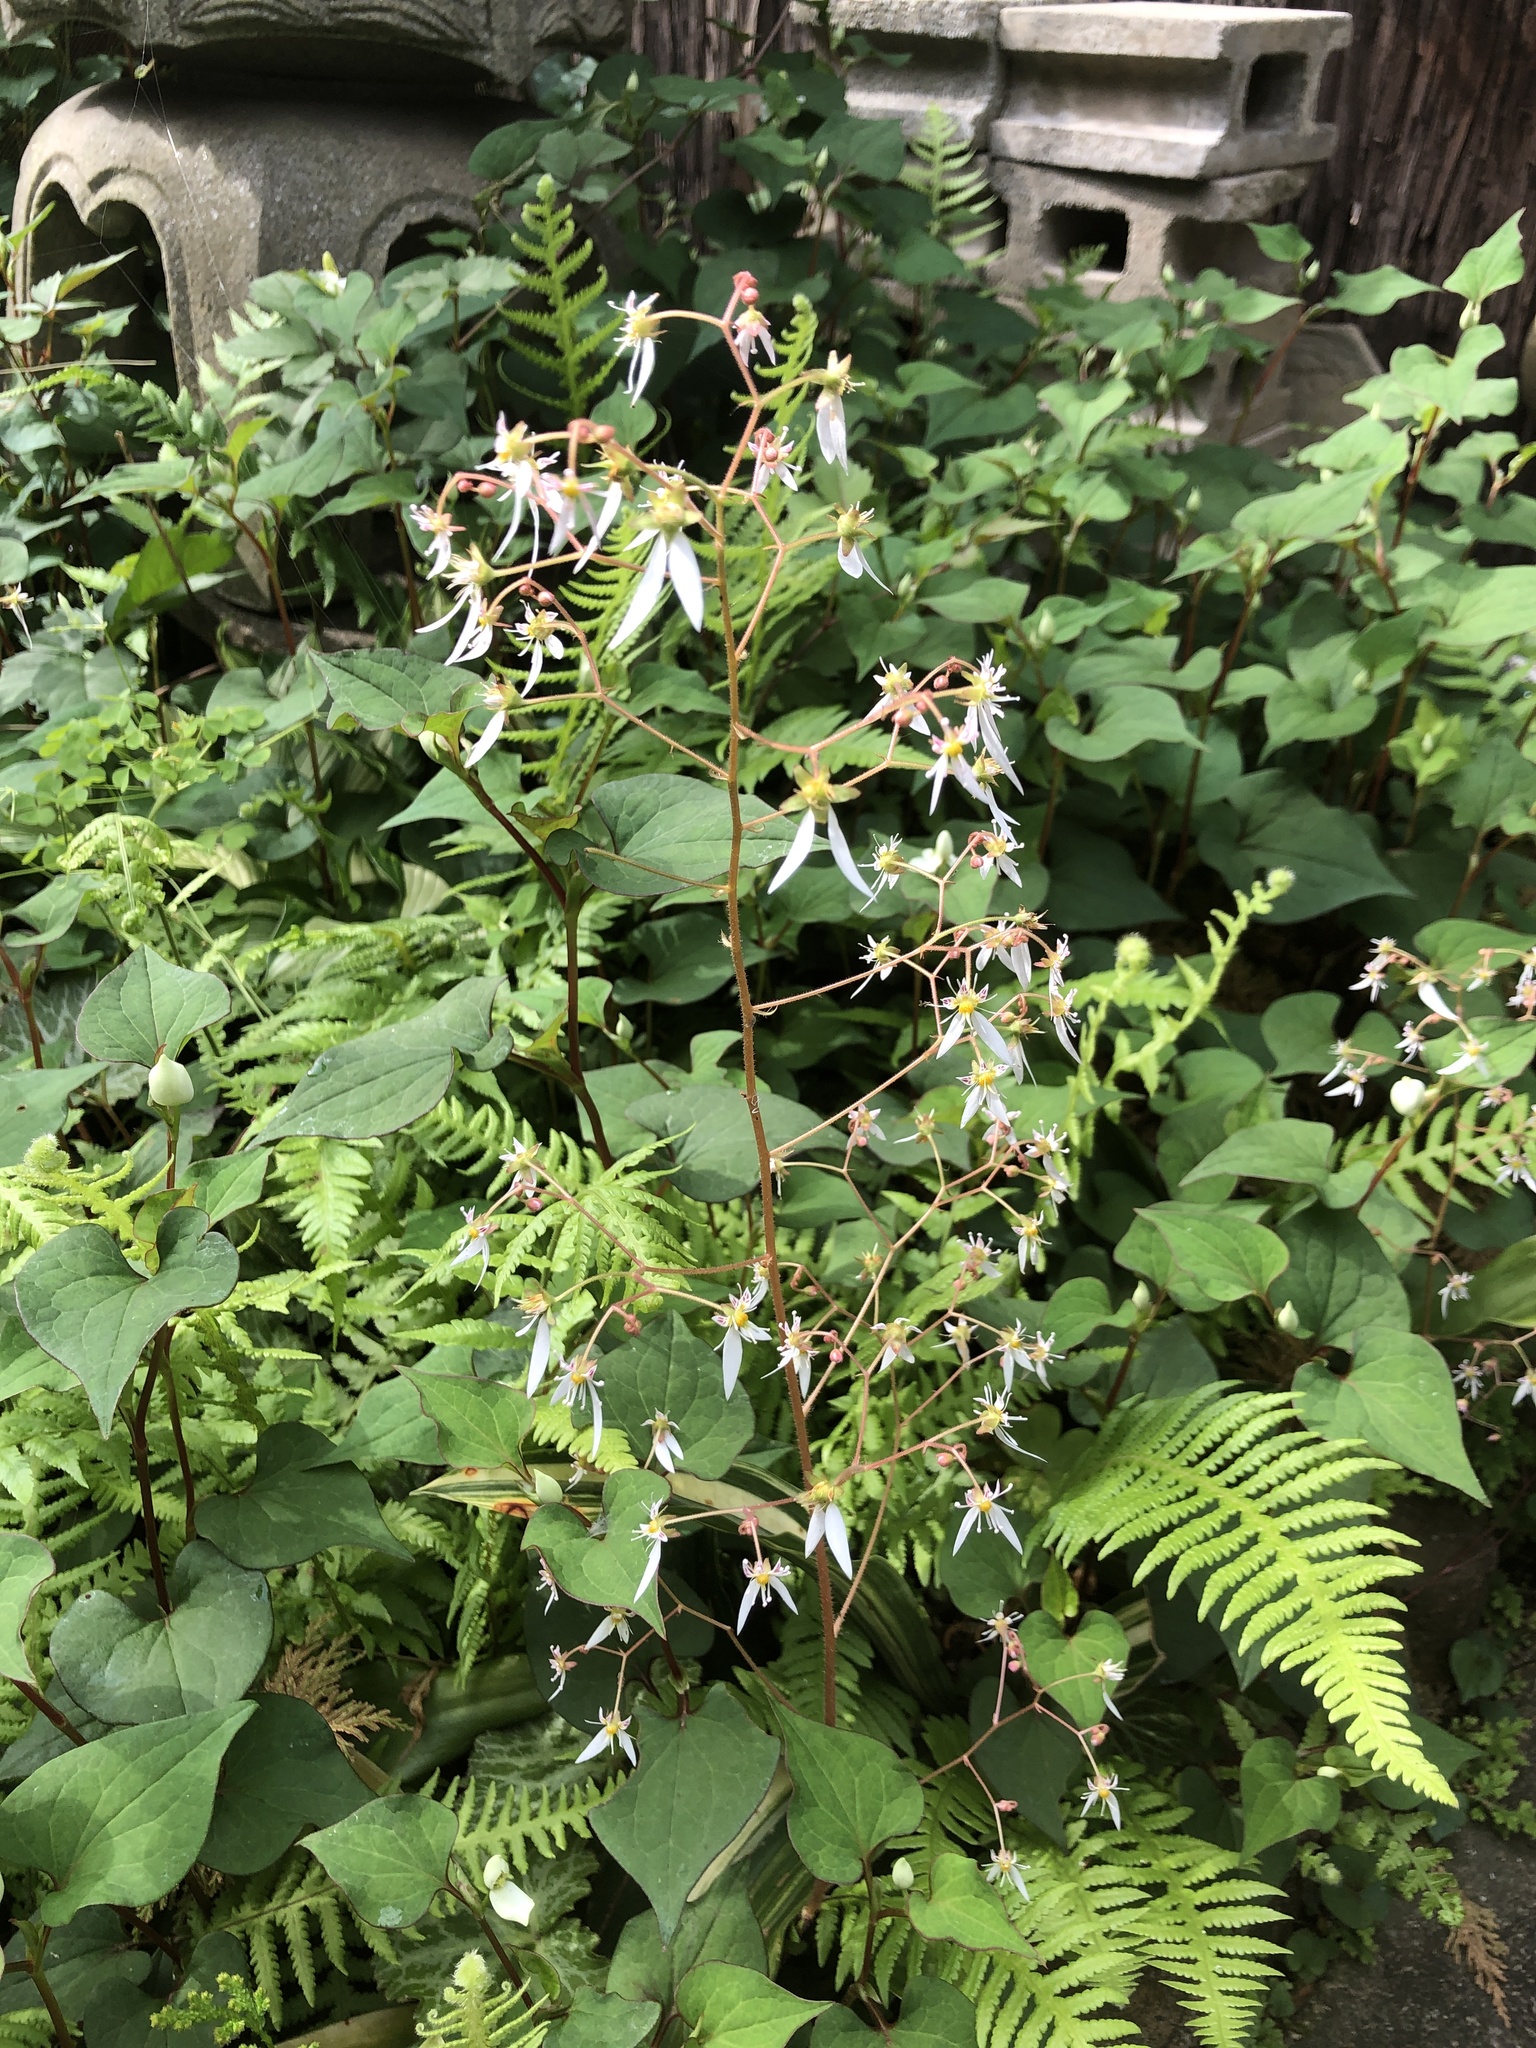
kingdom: Plantae
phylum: Tracheophyta
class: Magnoliopsida
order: Saxifragales
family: Saxifragaceae
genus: Saxifraga
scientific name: Saxifraga stolonifera
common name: Creeping saxifrage
